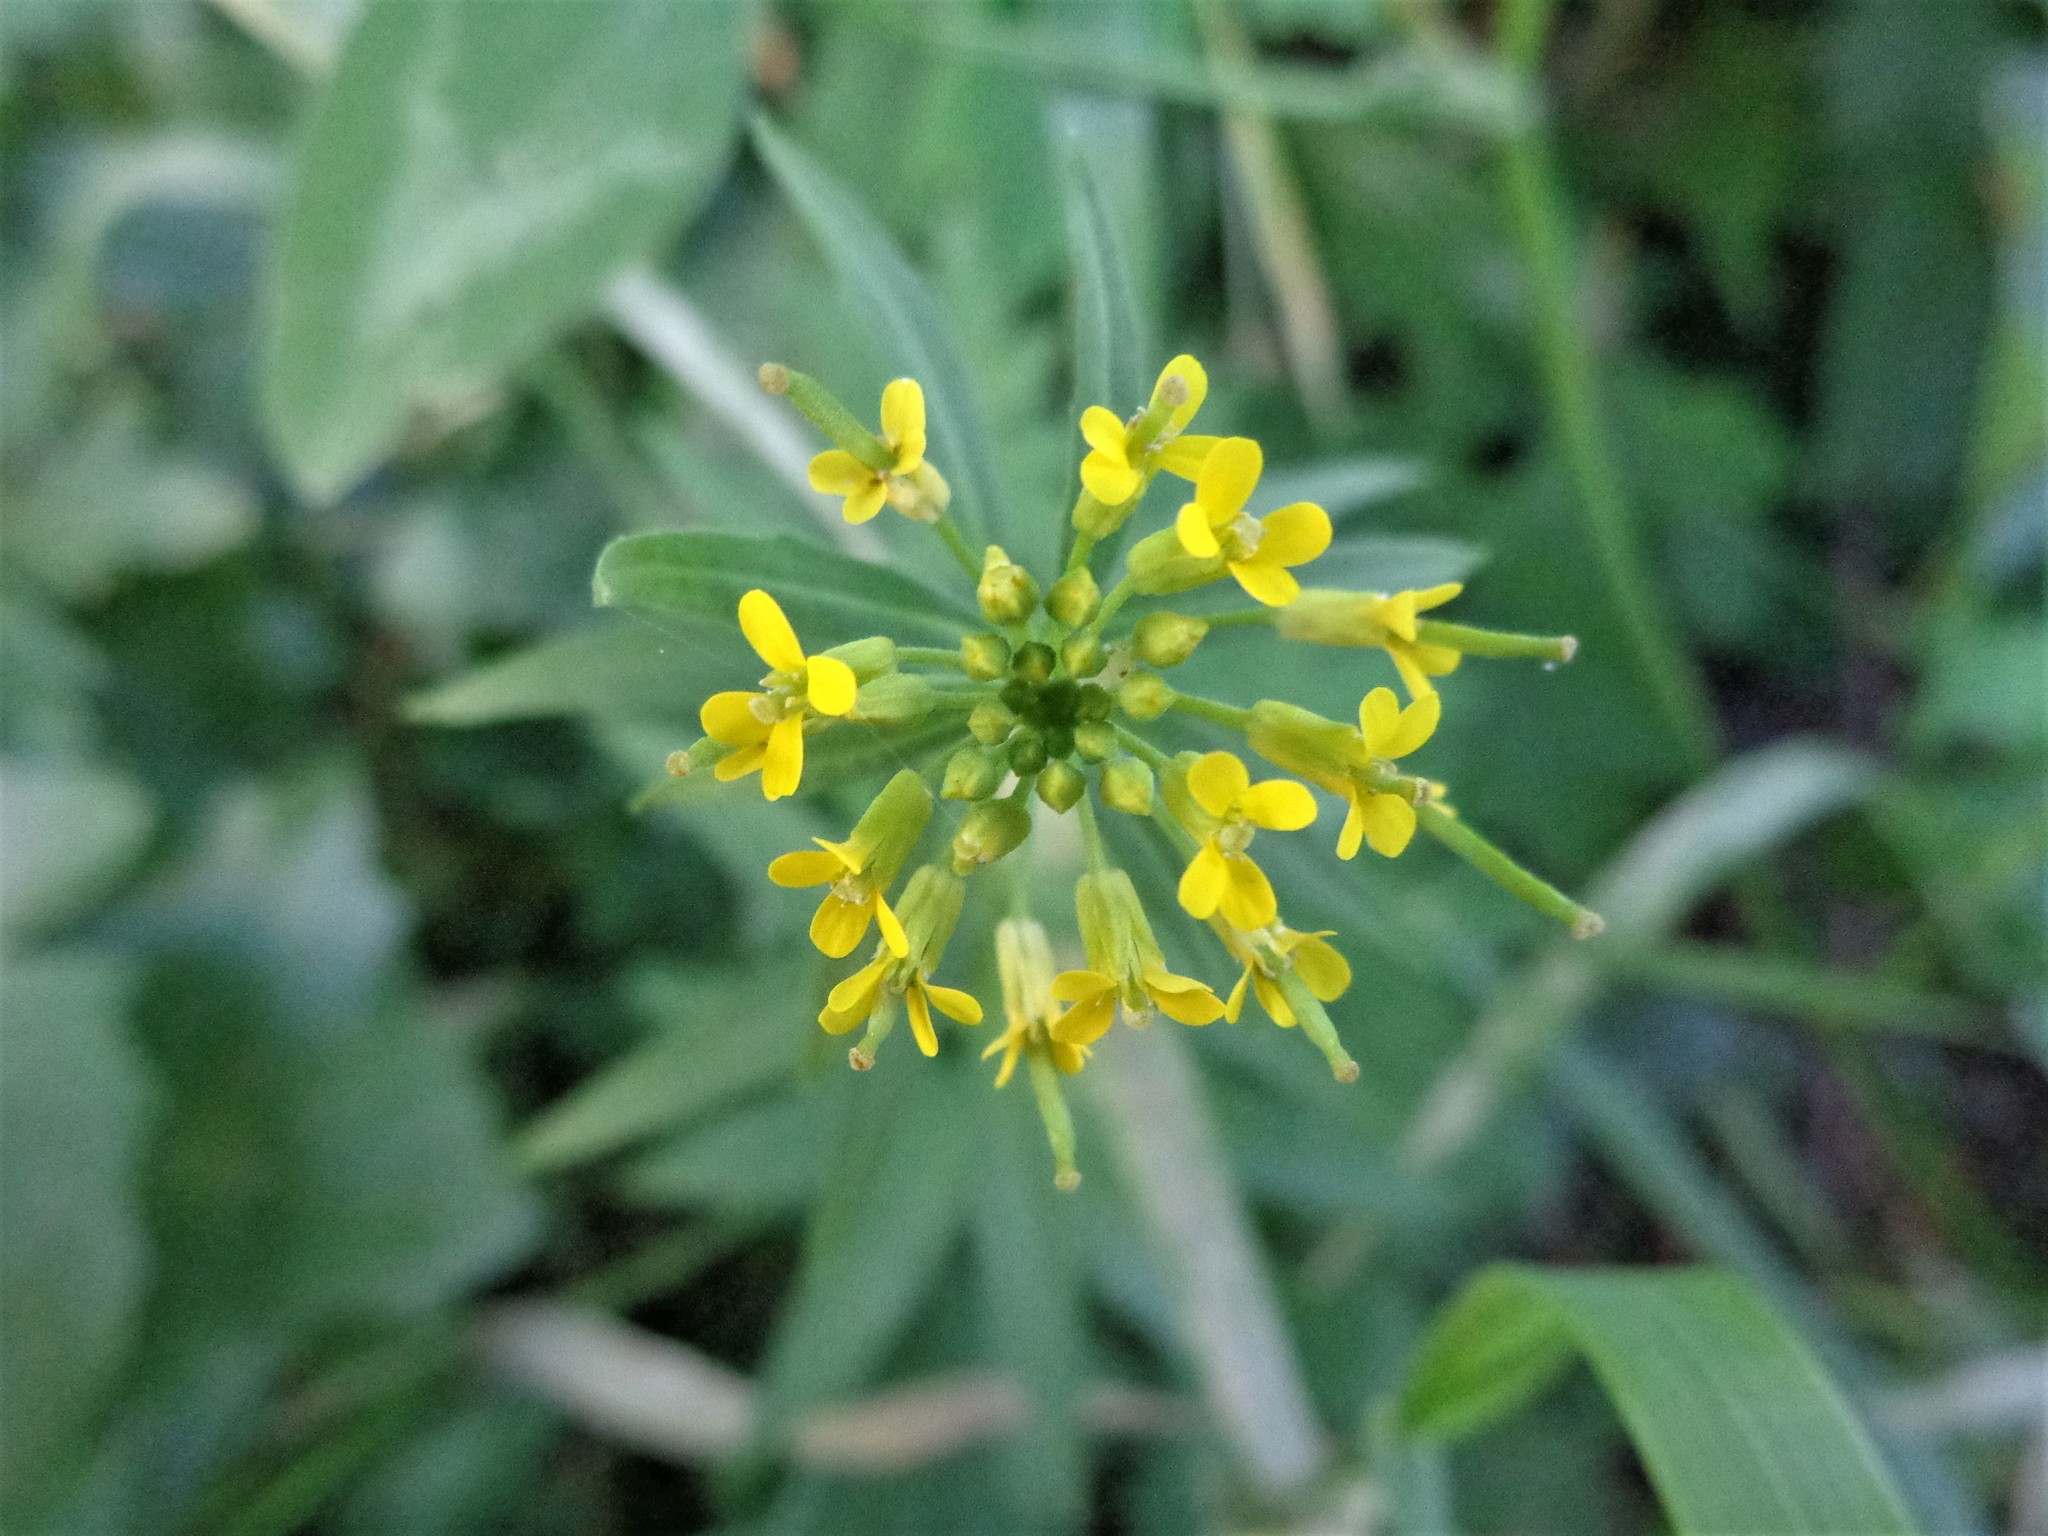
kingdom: Plantae
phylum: Tracheophyta
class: Magnoliopsida
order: Brassicales
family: Brassicaceae
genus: Erysimum
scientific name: Erysimum cheiranthoides
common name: Treacle mustard
